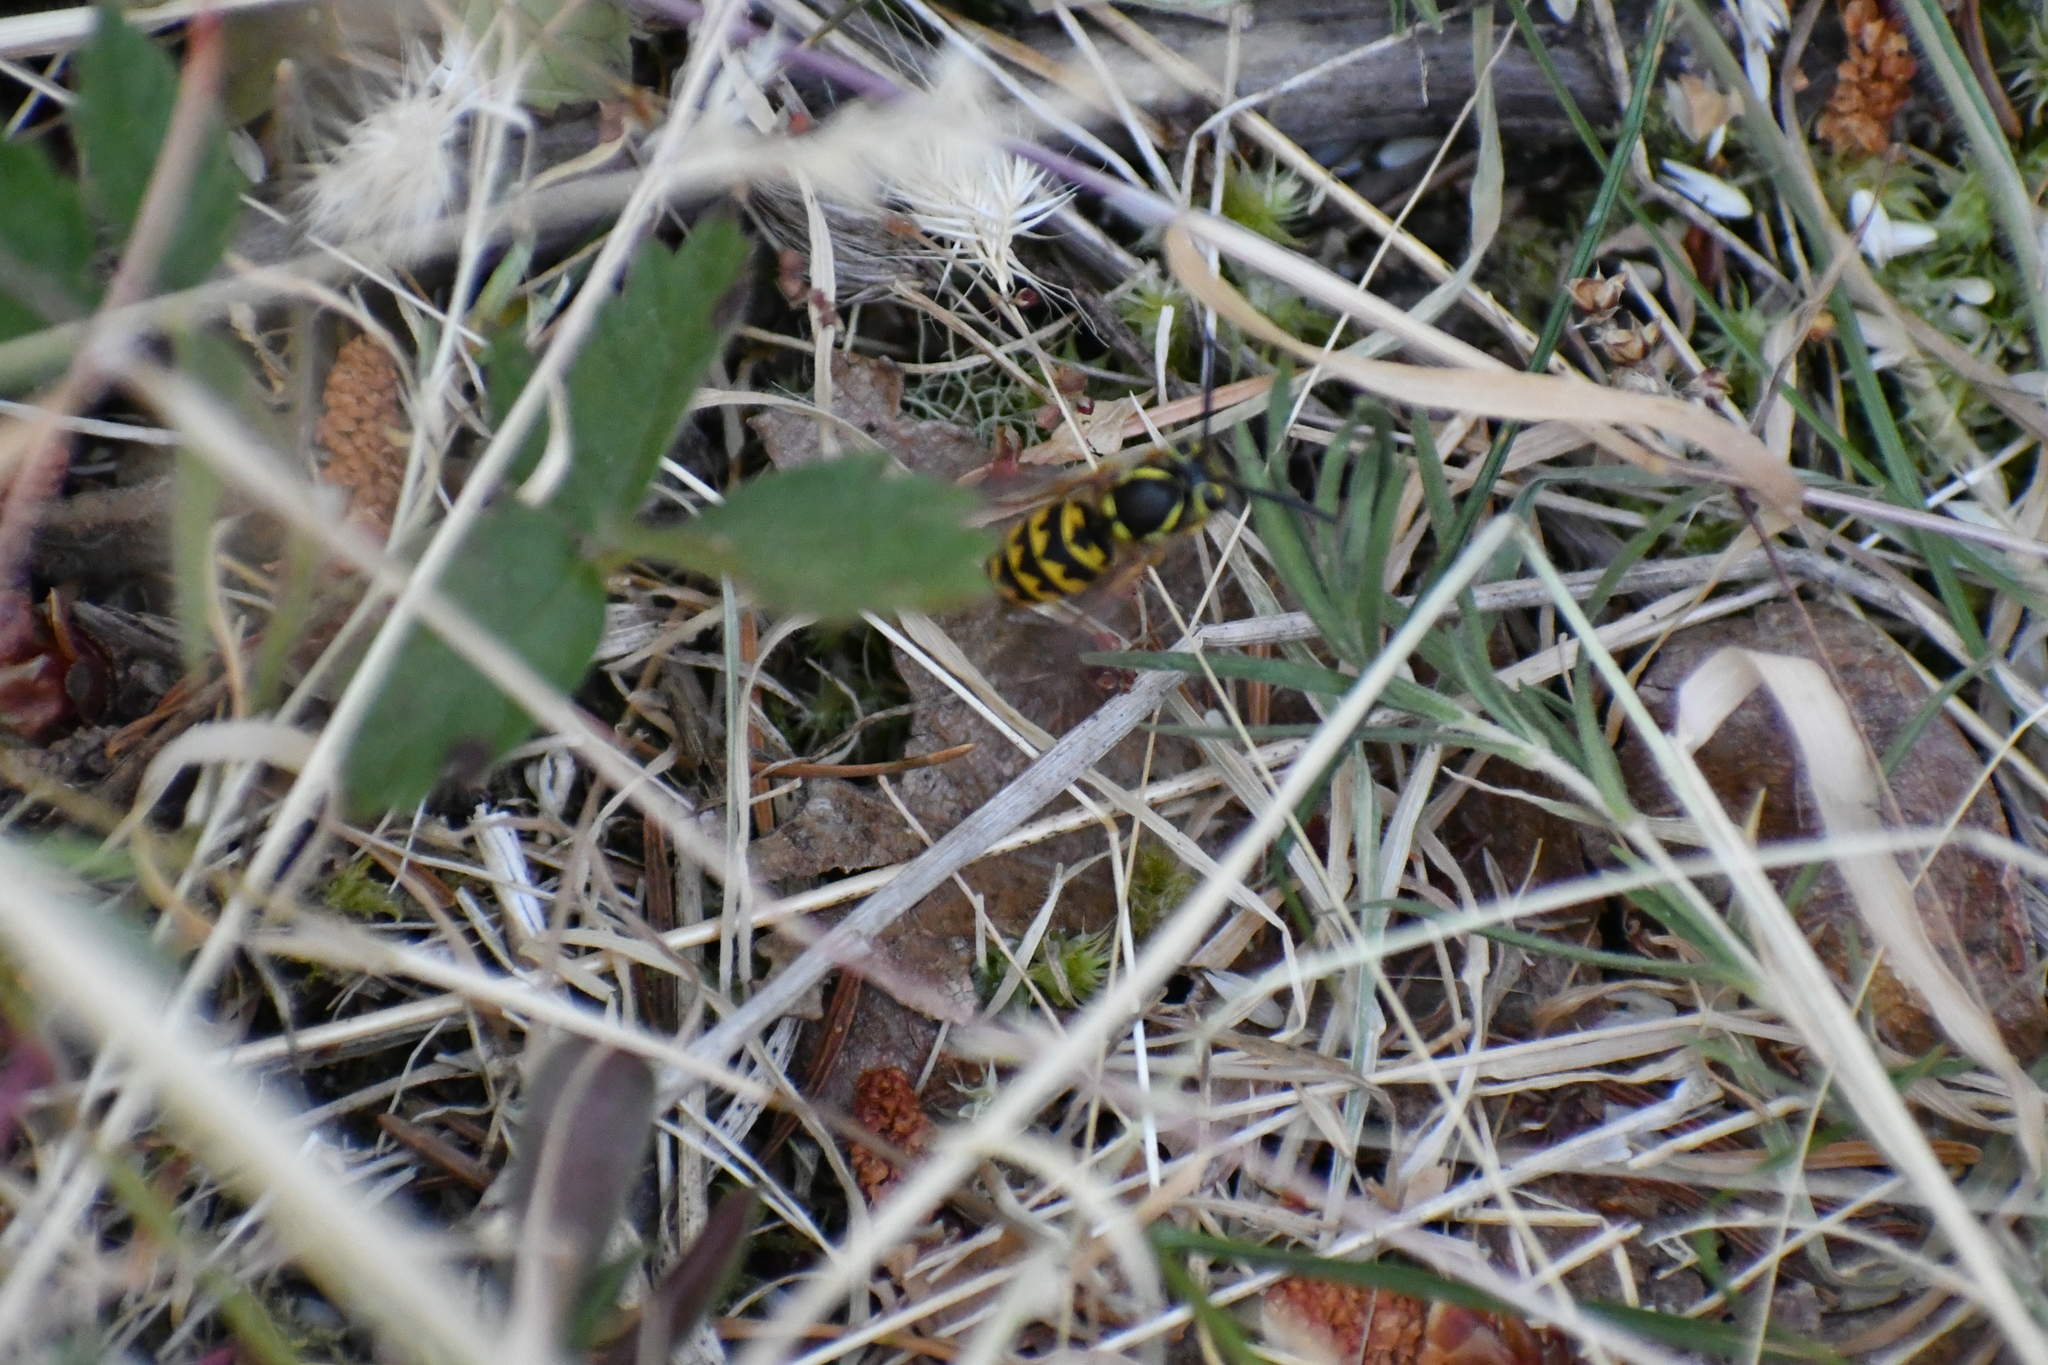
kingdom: Animalia
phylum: Arthropoda
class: Insecta
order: Hymenoptera
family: Vespidae
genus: Vespula
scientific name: Vespula pensylvanica
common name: Western yellowjacket
